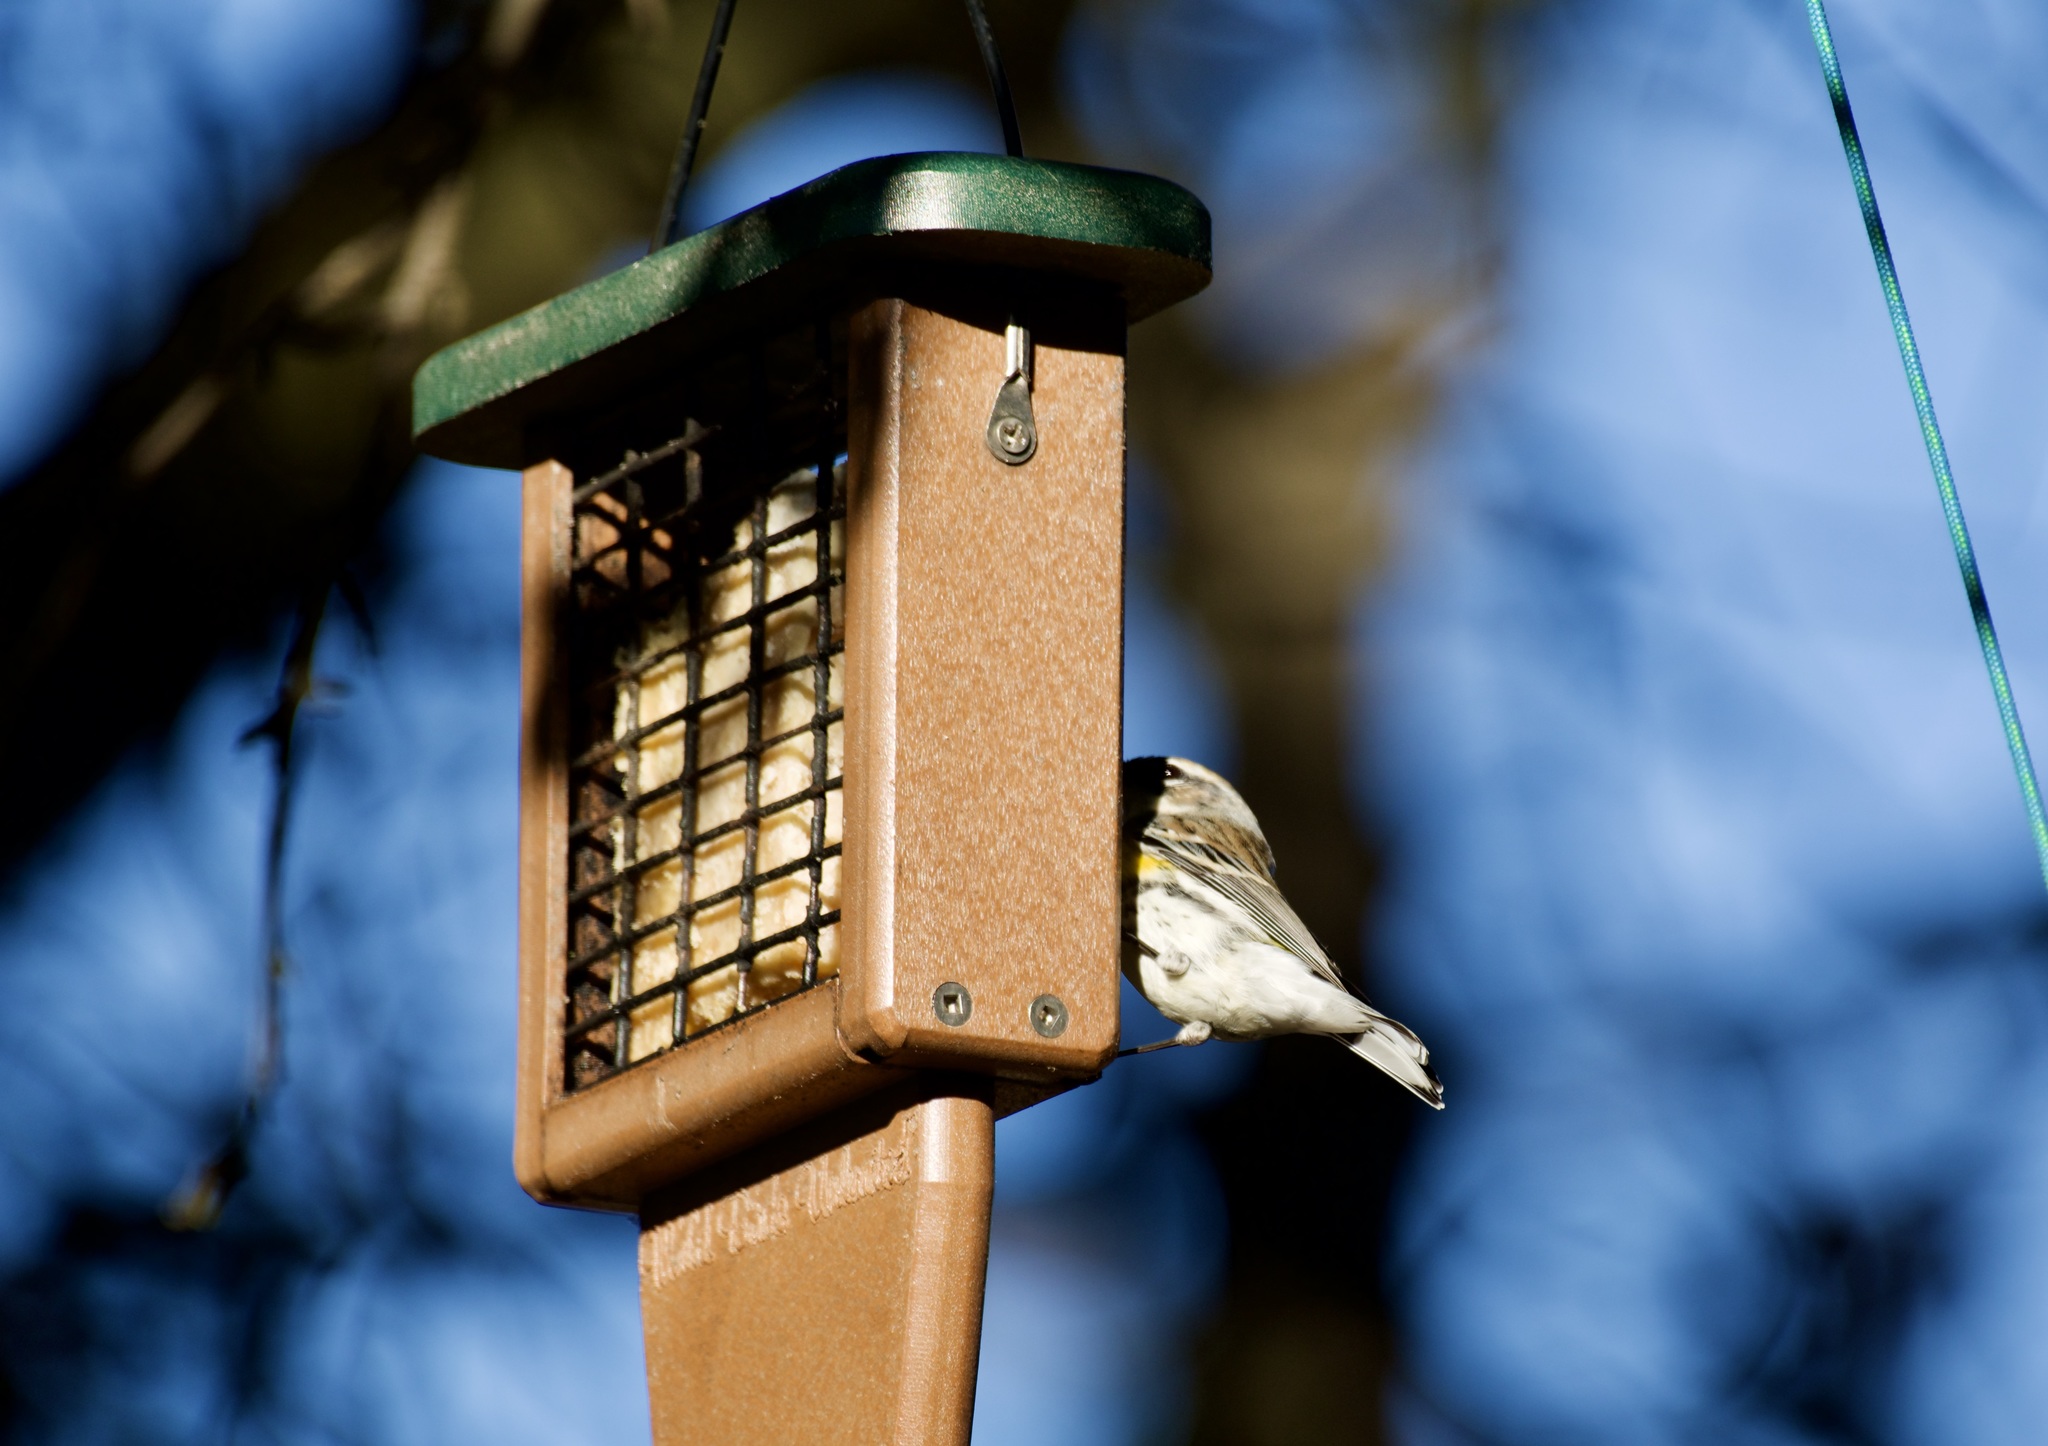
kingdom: Animalia
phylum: Chordata
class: Aves
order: Passeriformes
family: Parulidae
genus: Setophaga
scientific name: Setophaga coronata
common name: Myrtle warbler
